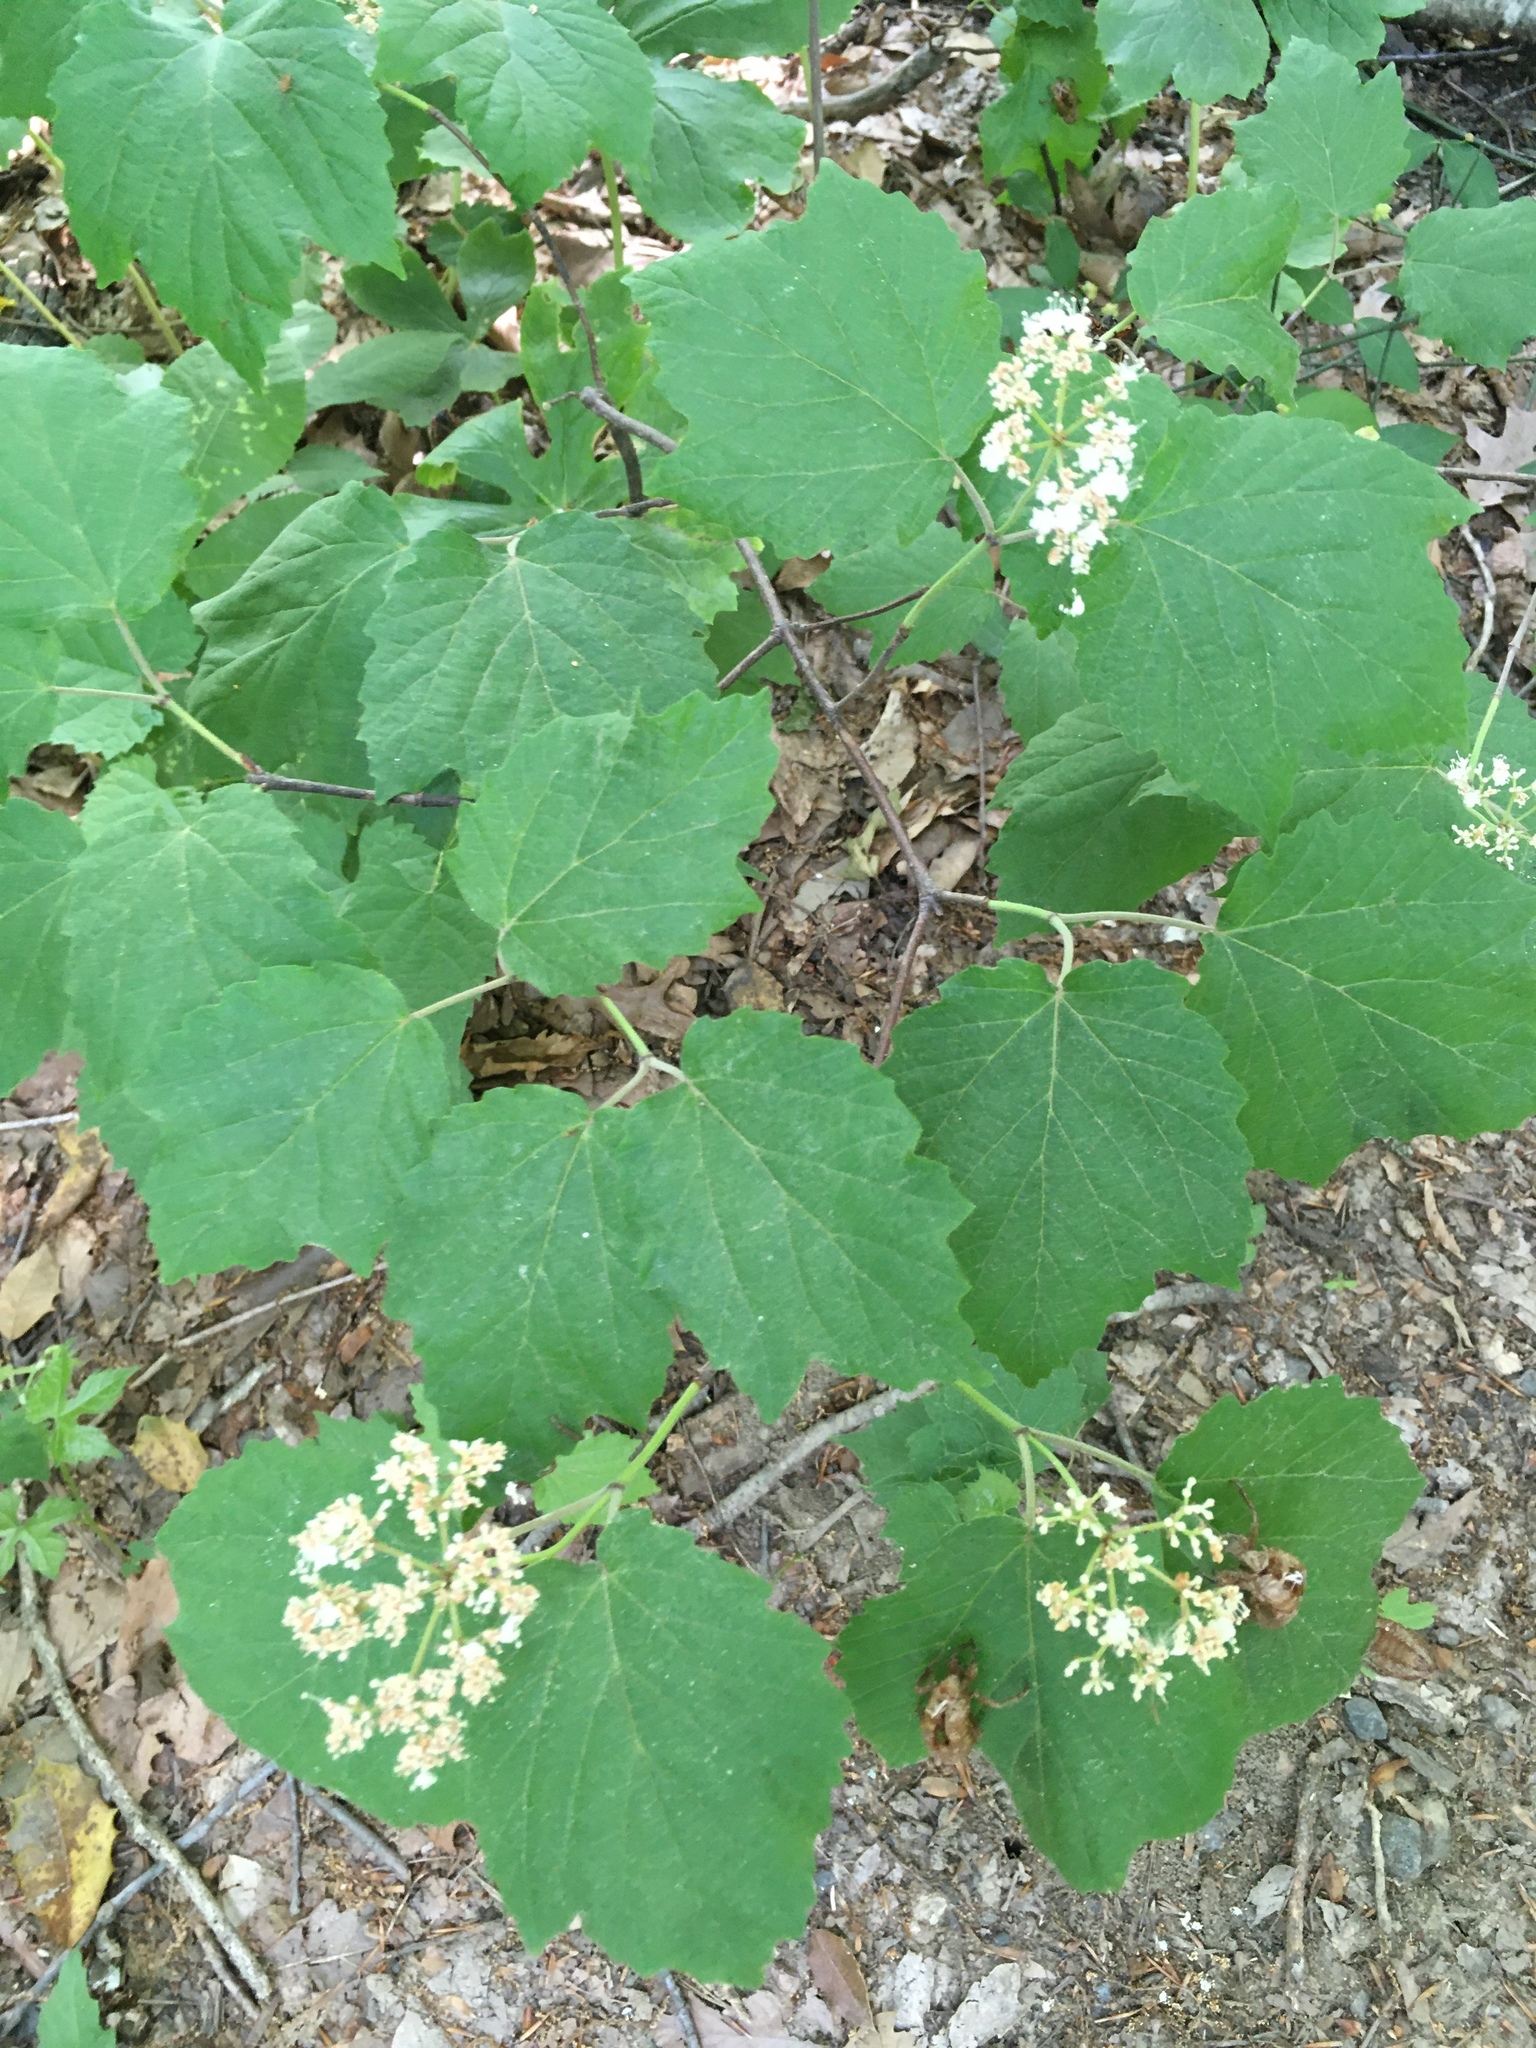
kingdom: Plantae
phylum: Tracheophyta
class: Magnoliopsida
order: Dipsacales
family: Viburnaceae
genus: Viburnum
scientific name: Viburnum acerifolium
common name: Dockmackie
